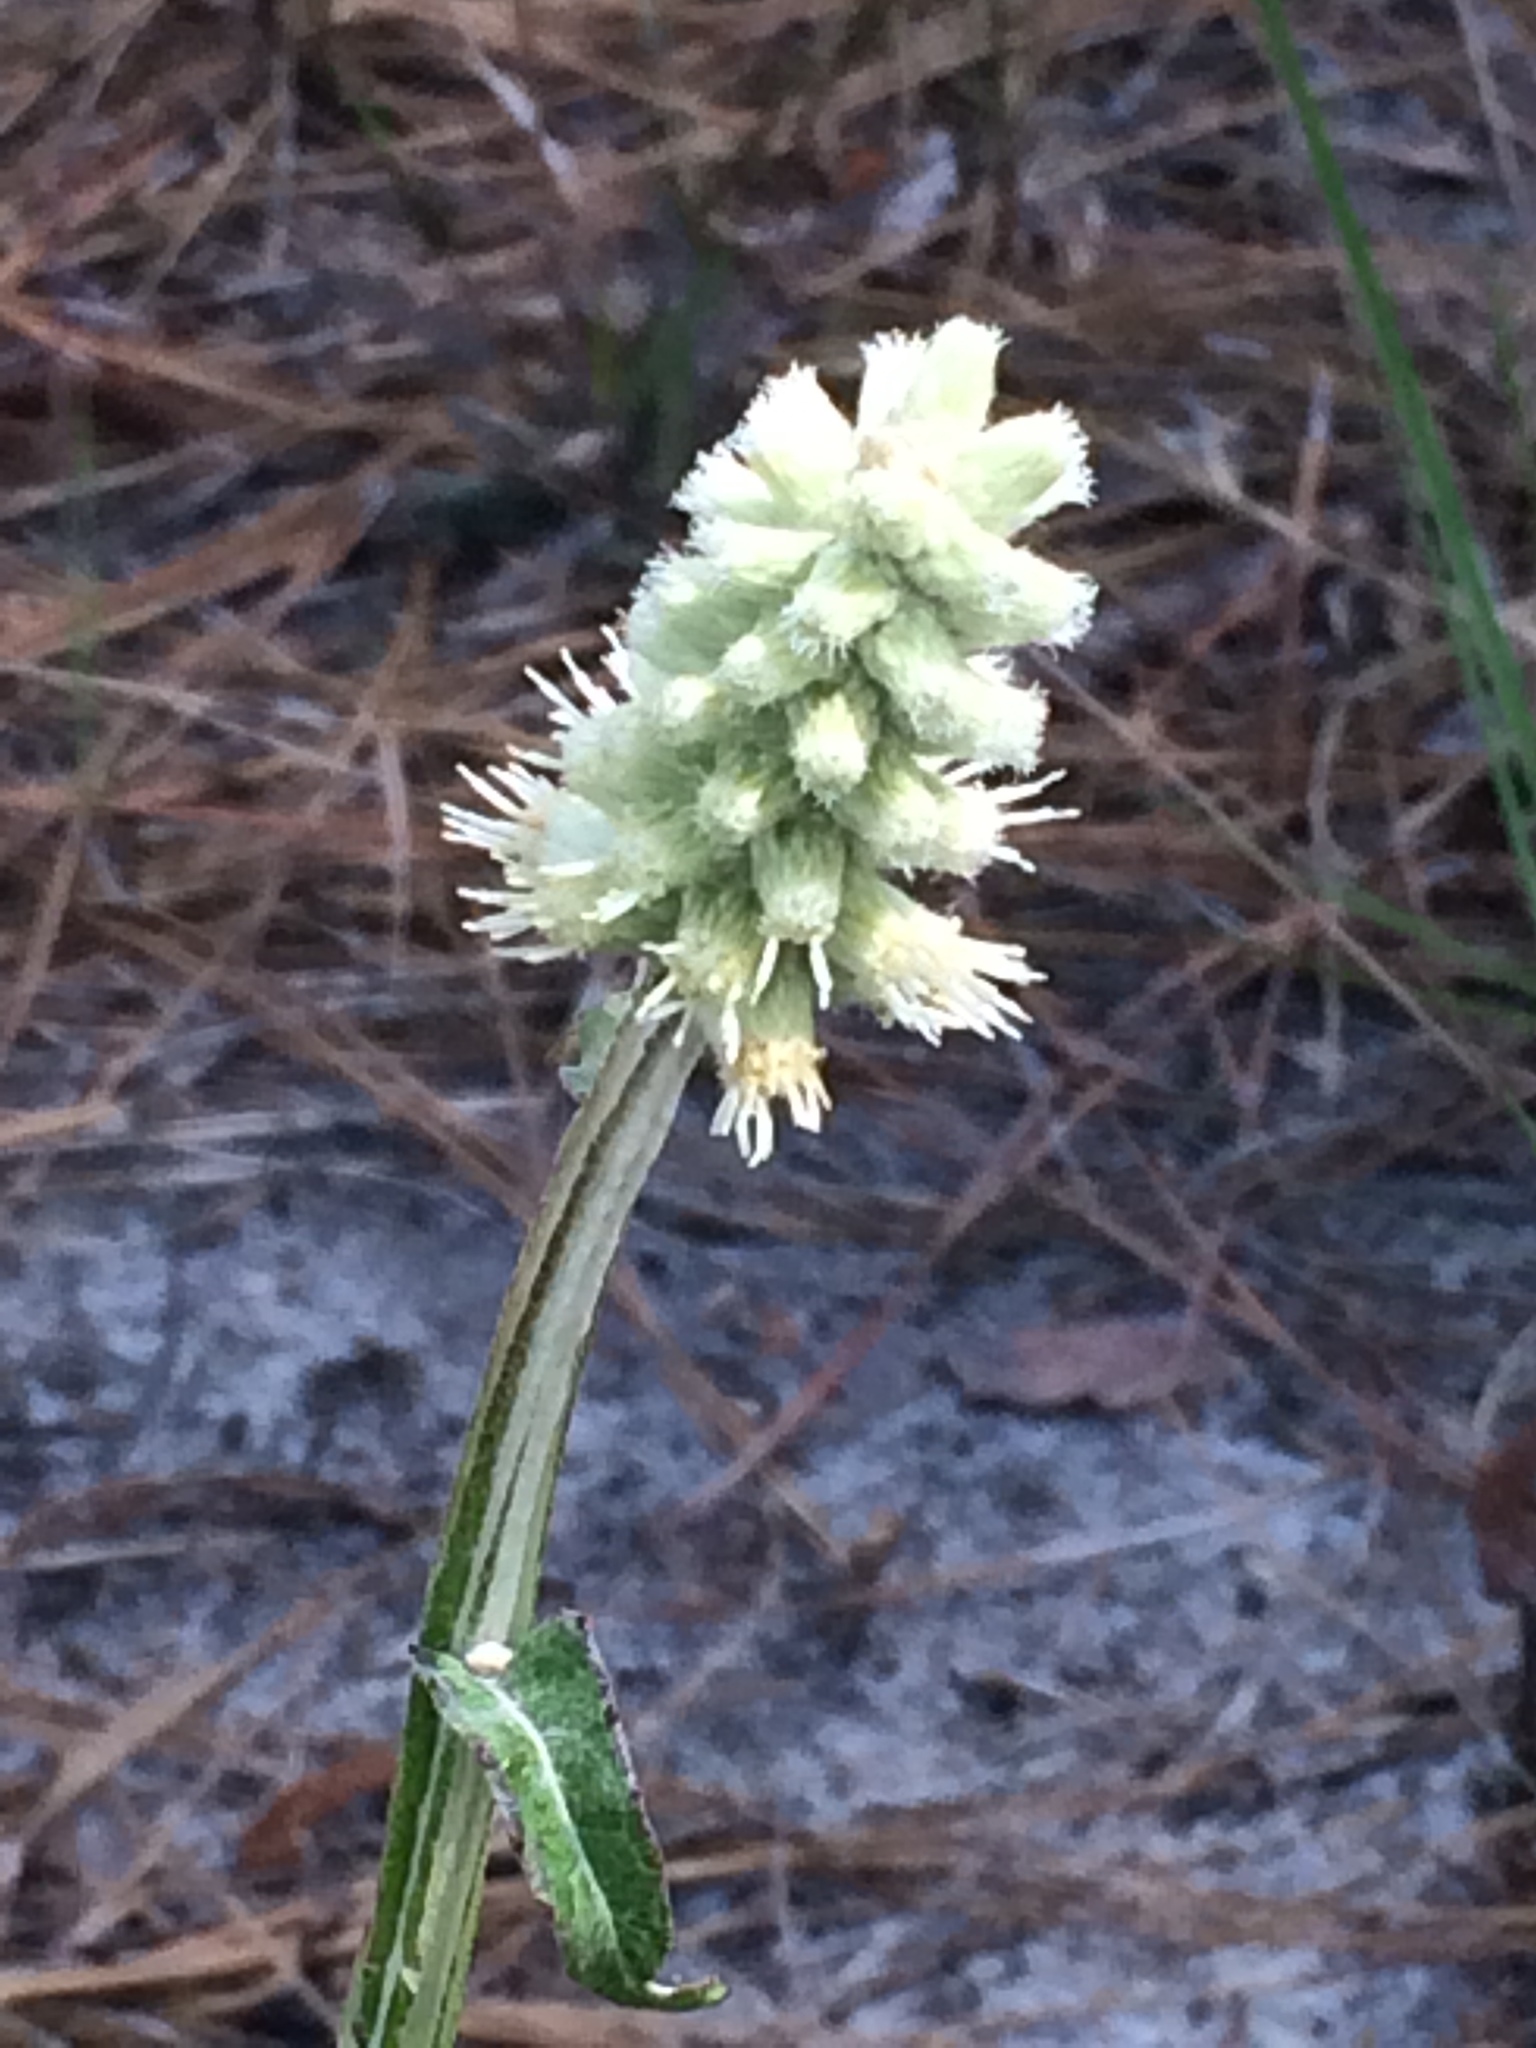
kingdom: Plantae
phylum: Tracheophyta
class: Magnoliopsida
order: Asterales
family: Asteraceae
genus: Pterocaulon
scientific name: Pterocaulon pycnostachyum
